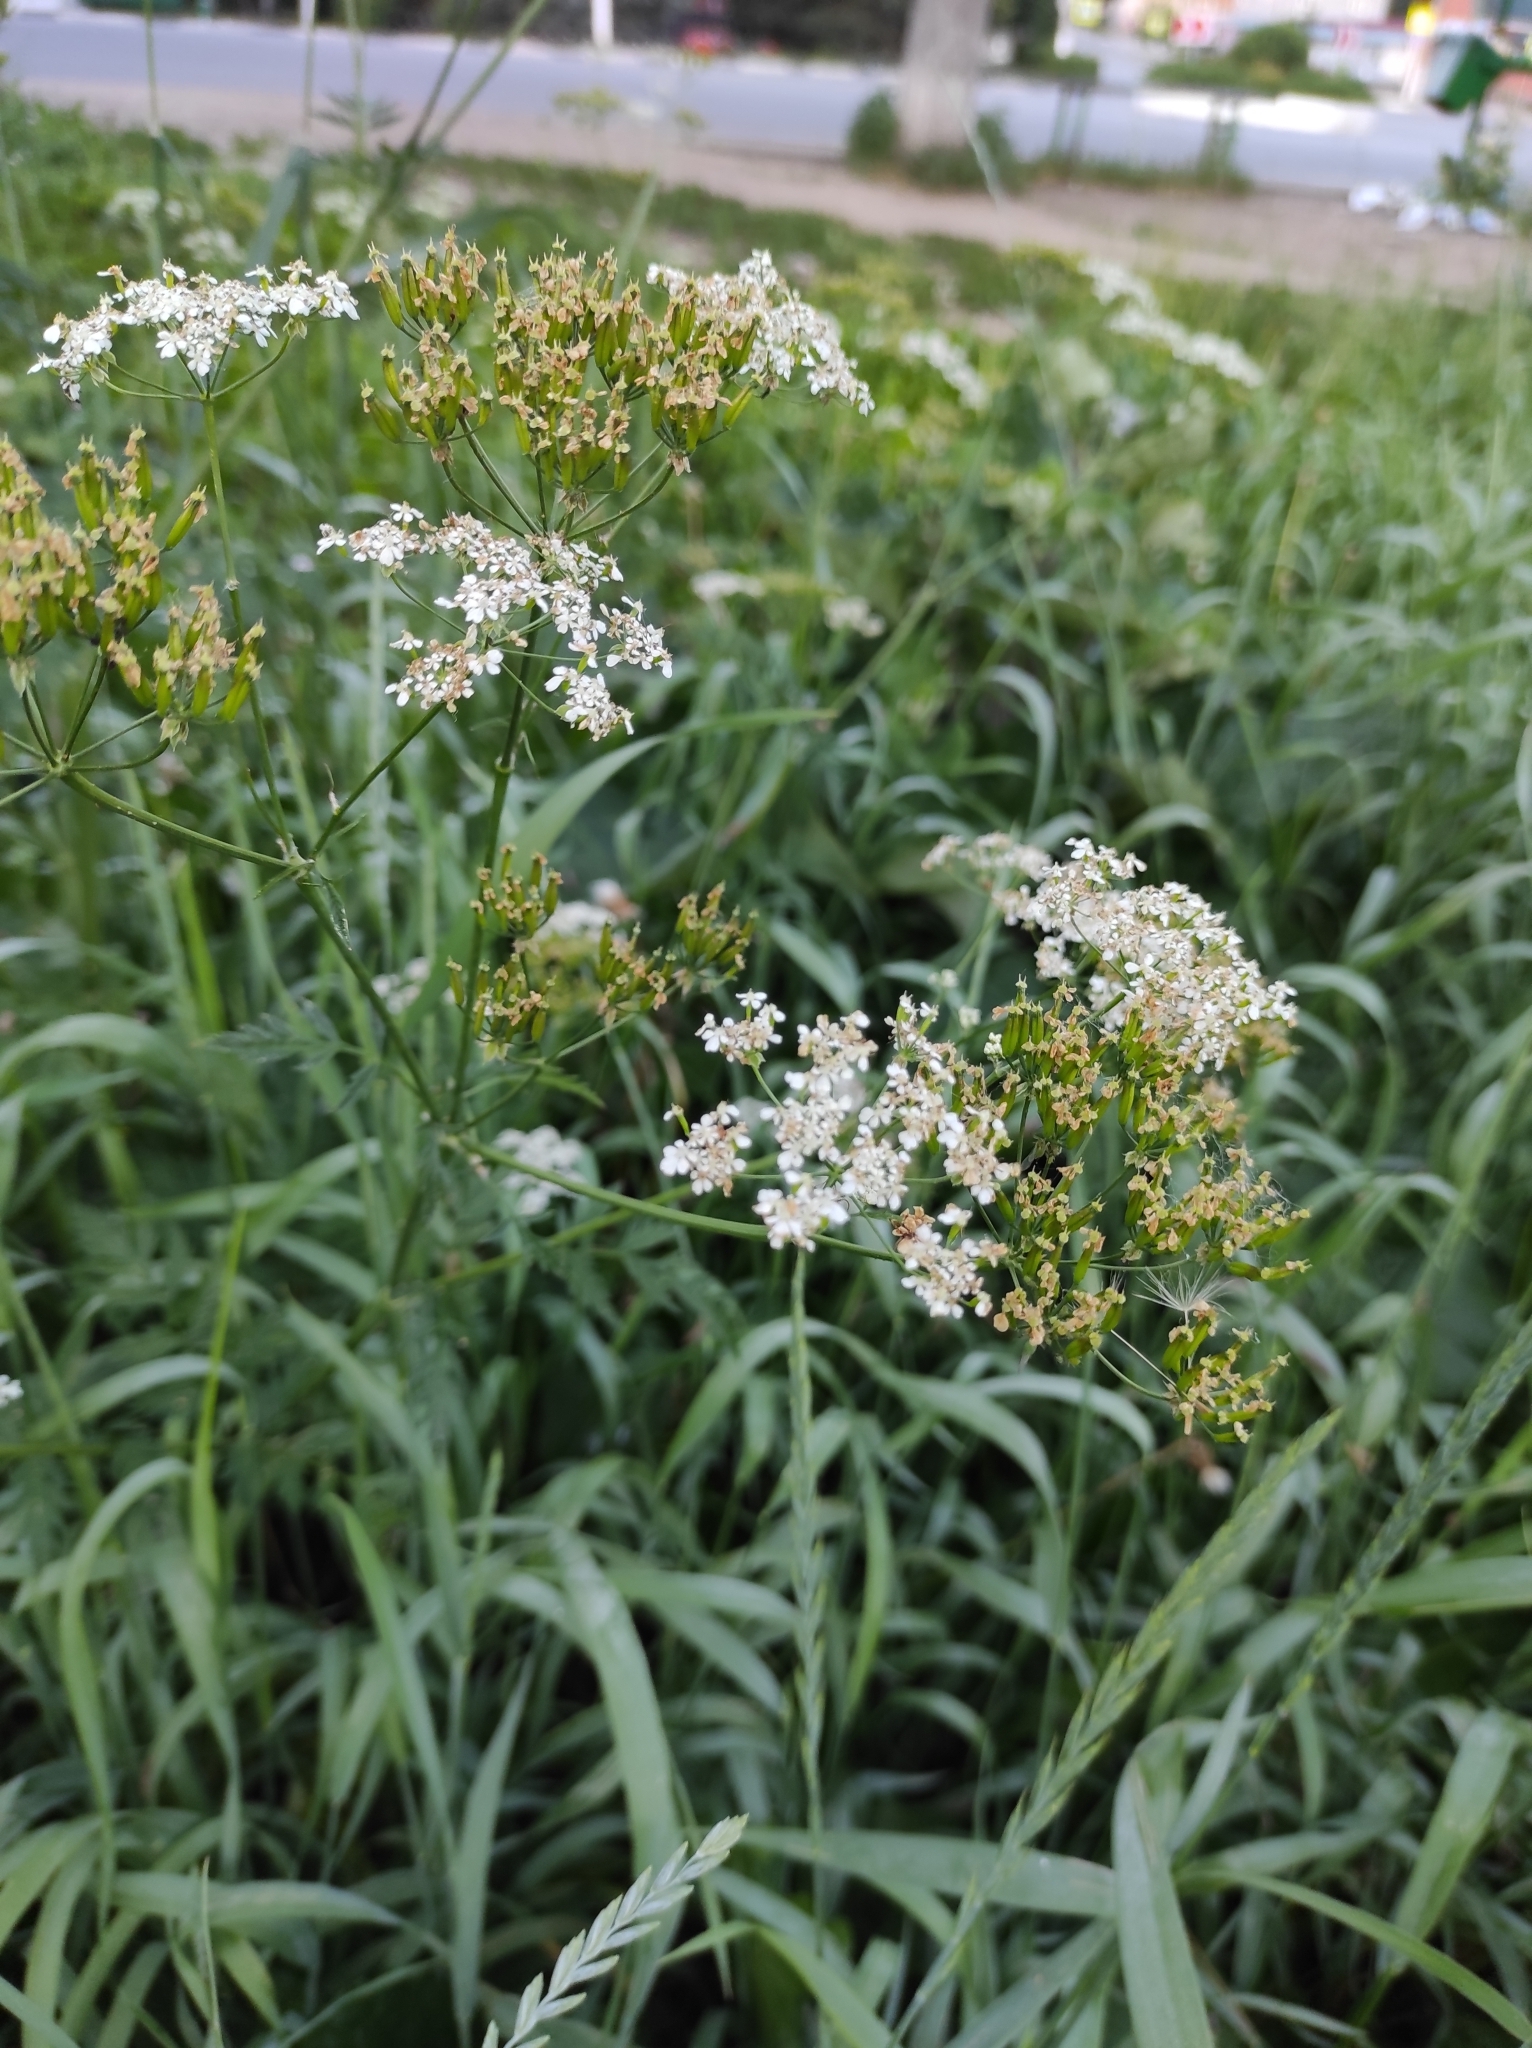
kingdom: Plantae
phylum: Tracheophyta
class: Magnoliopsida
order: Apiales
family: Apiaceae
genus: Anthriscus
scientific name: Anthriscus sylvestris
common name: Cow parsley
